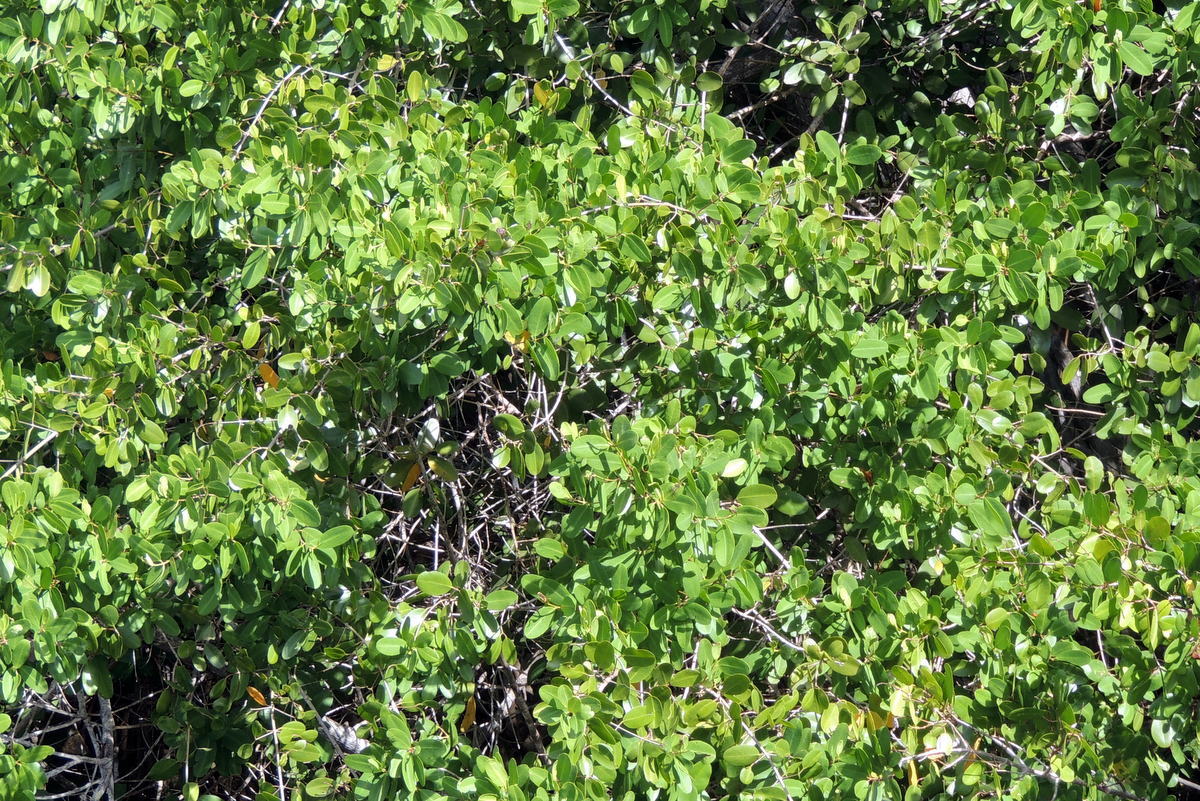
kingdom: Plantae
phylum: Tracheophyta
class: Magnoliopsida
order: Myrtales
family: Combretaceae
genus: Laguncularia
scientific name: Laguncularia racemosa
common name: White mangrove
